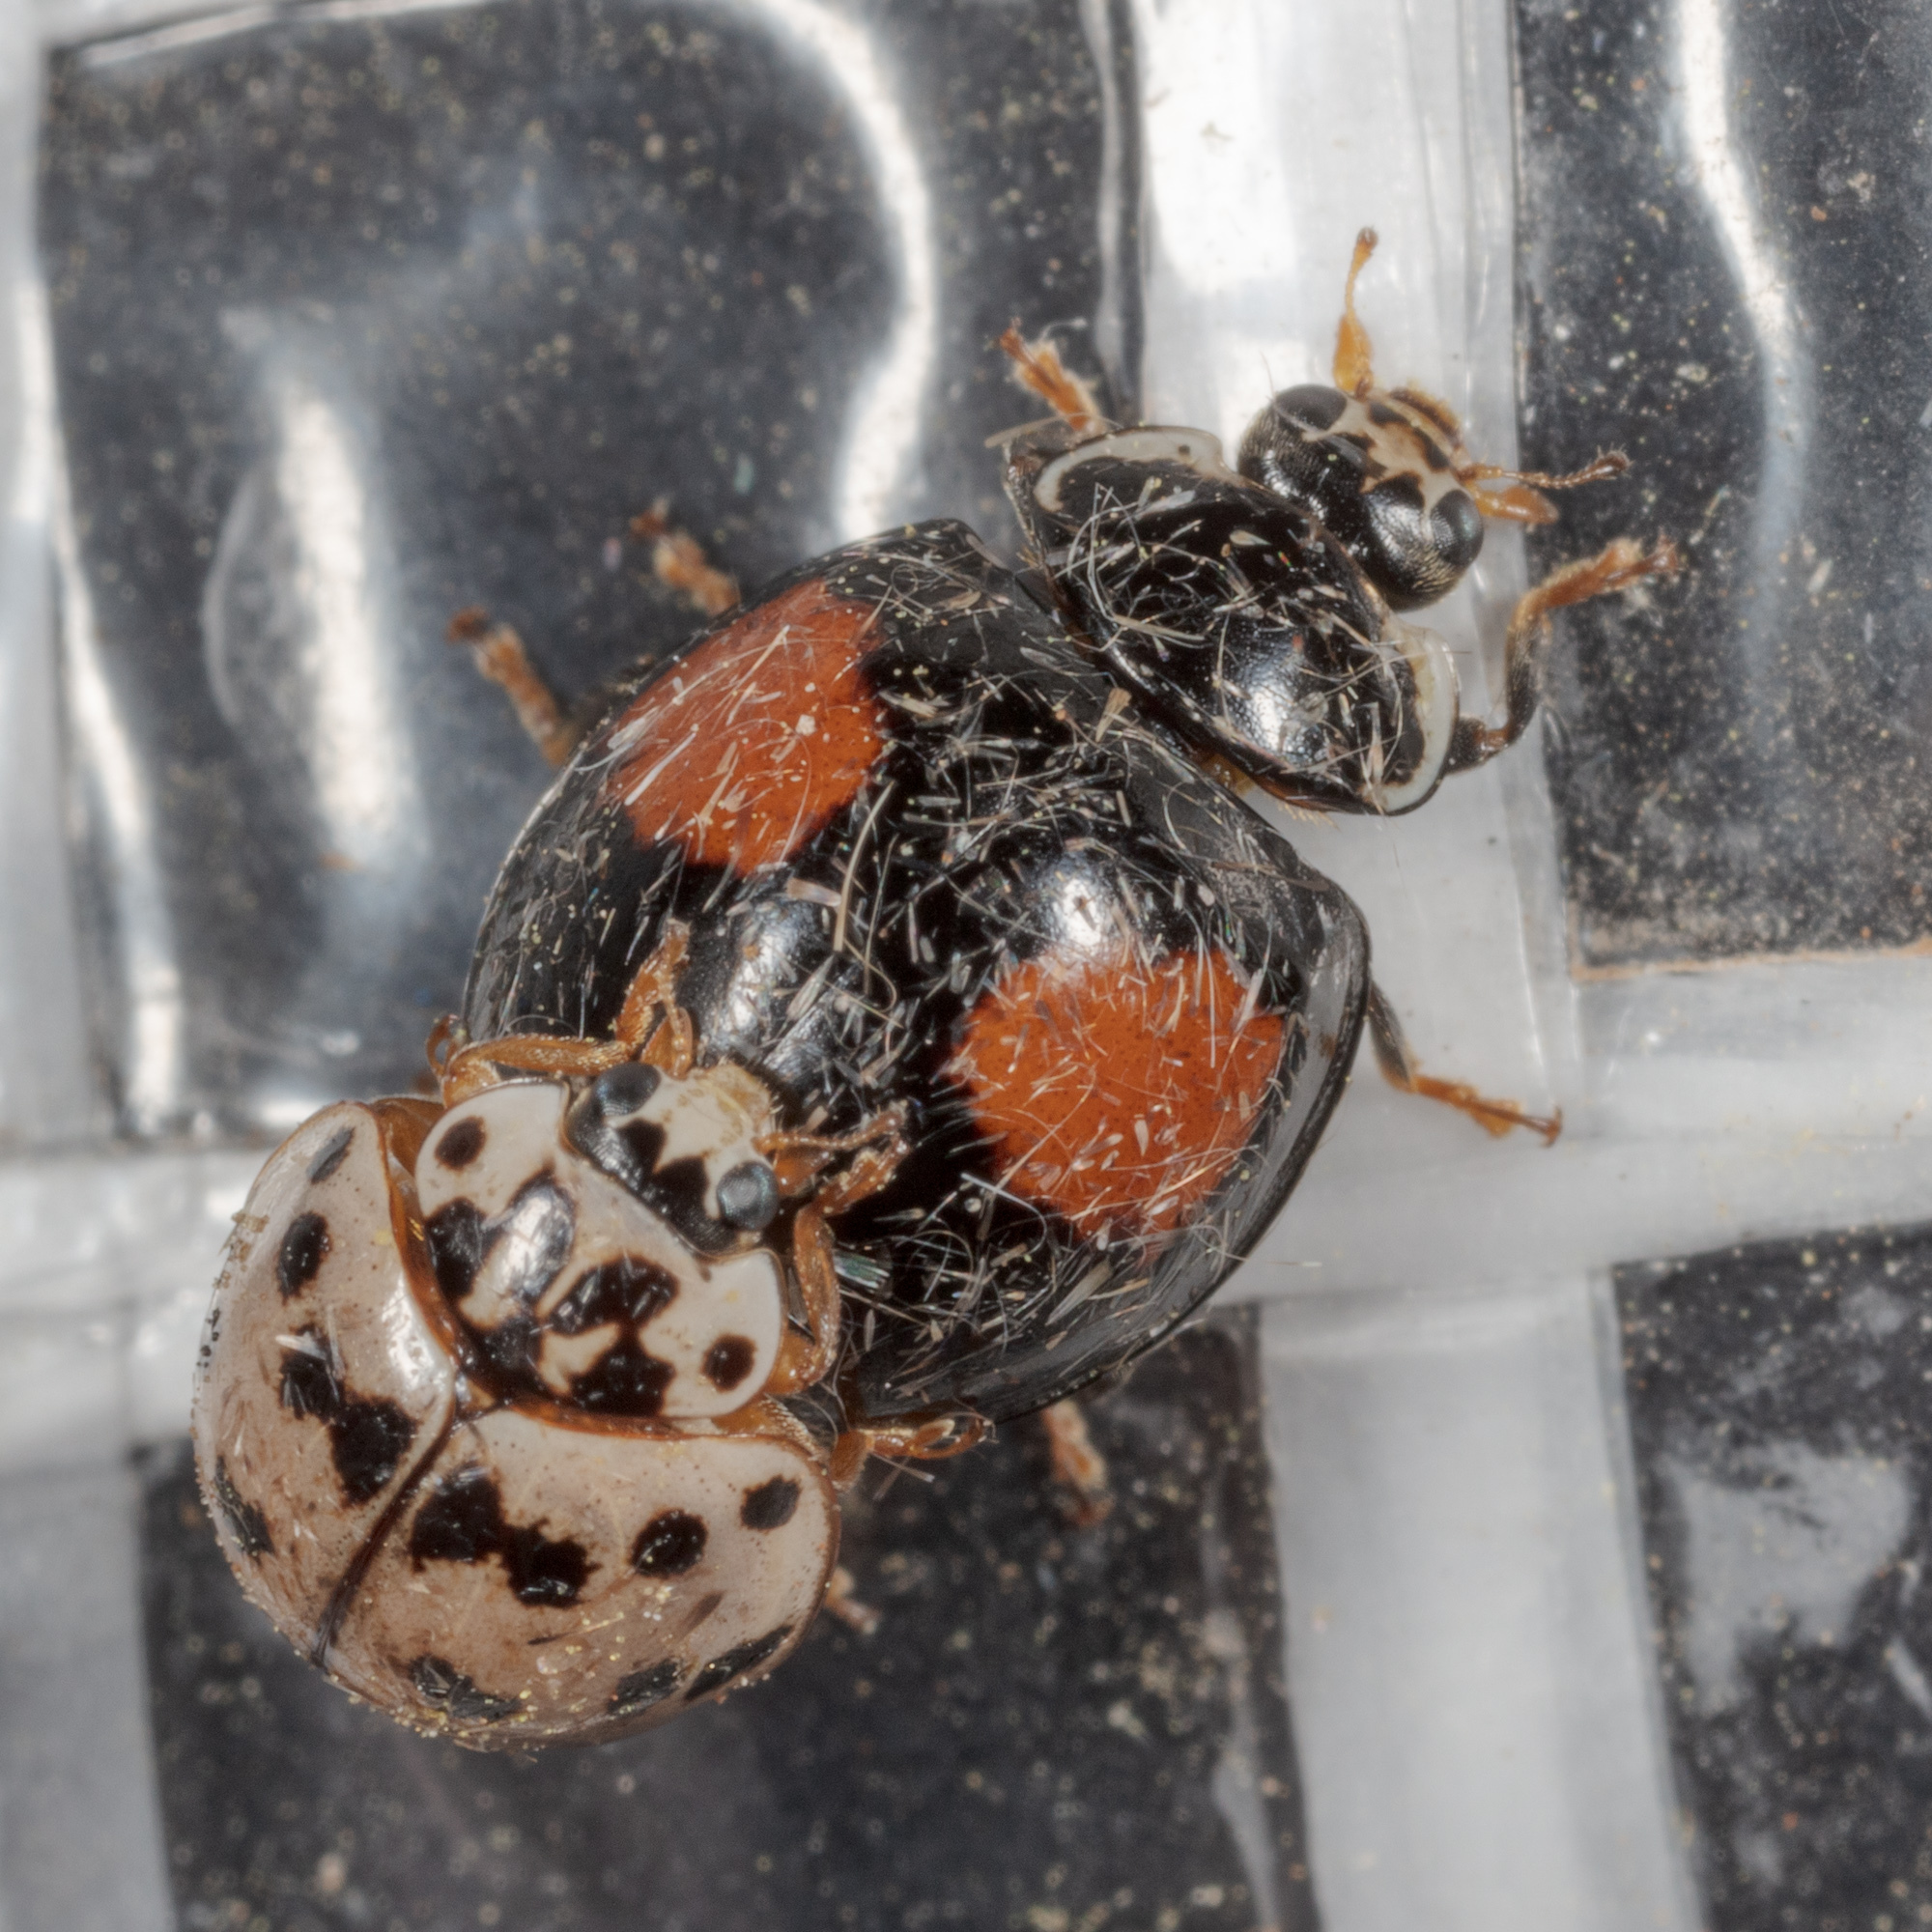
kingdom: Animalia
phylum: Arthropoda
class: Insecta
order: Coleoptera
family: Coccinellidae
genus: Olla
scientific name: Olla v-nigrum
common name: Ashy gray lady beetle
